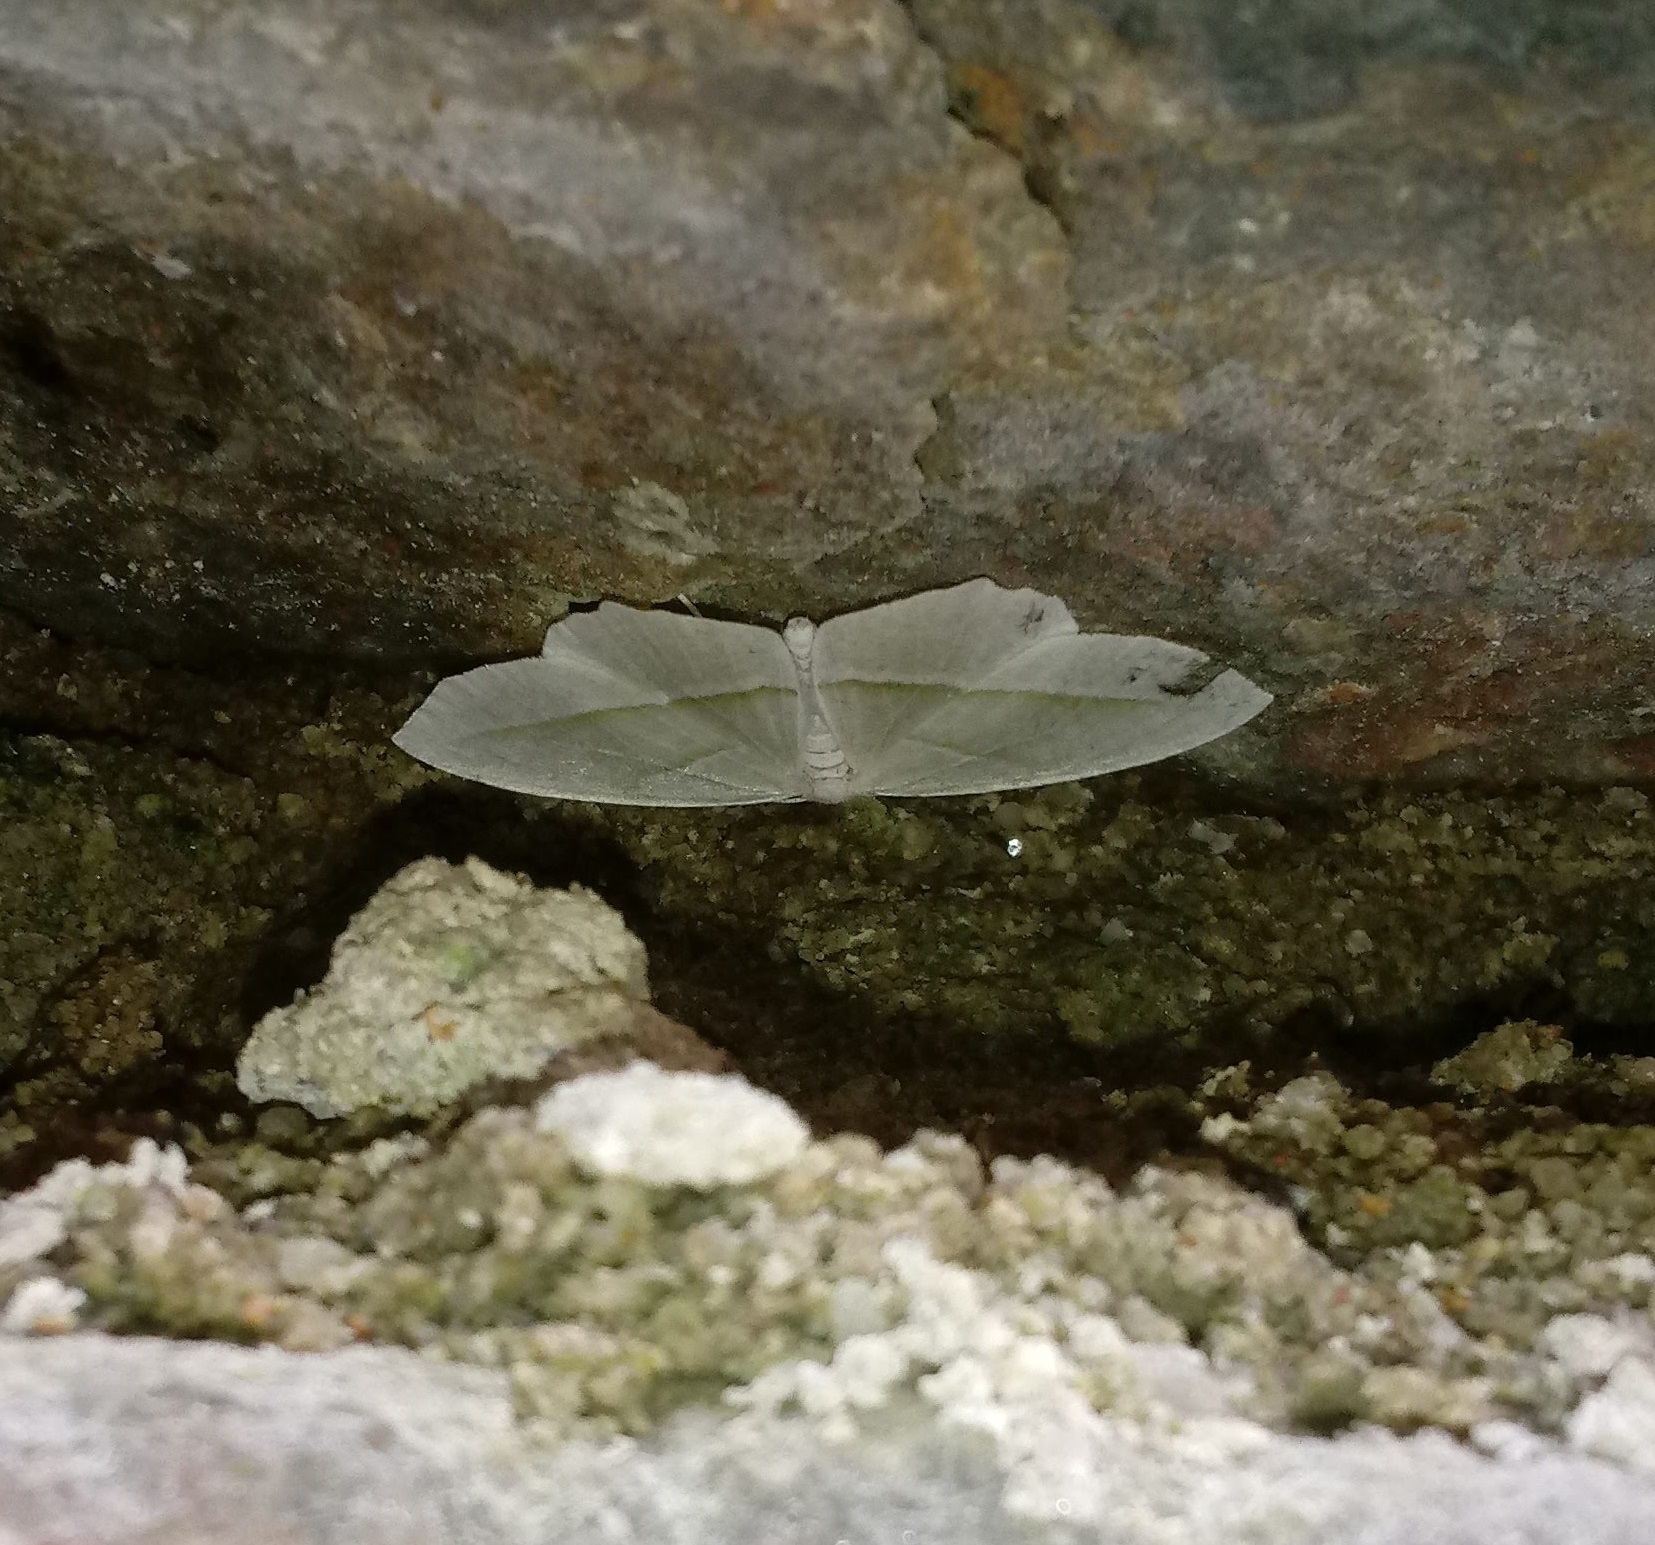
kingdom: Animalia
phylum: Arthropoda
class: Insecta
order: Lepidoptera
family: Geometridae
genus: Campaea
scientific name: Campaea perlata
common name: Fringed looper
